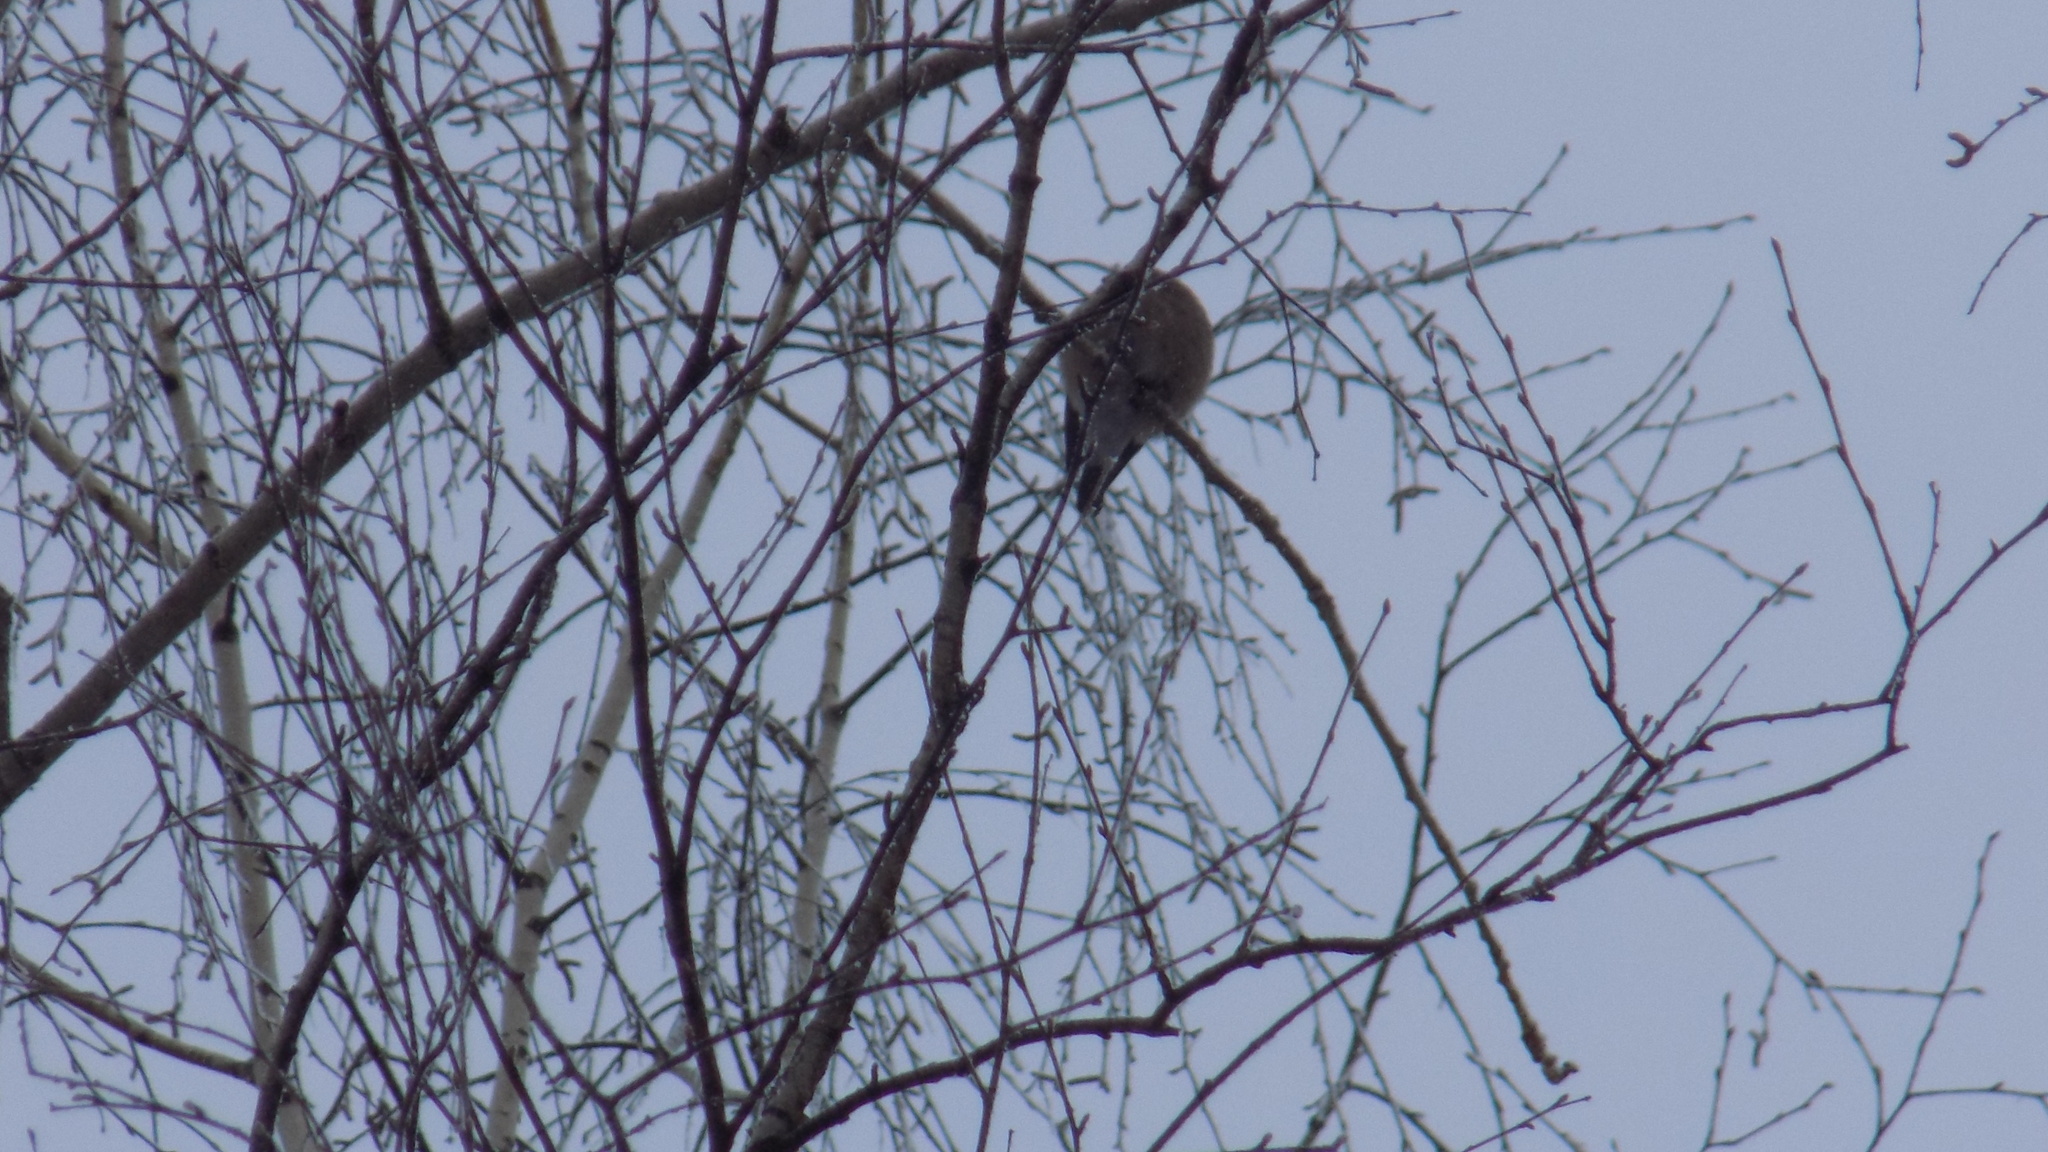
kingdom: Animalia
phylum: Chordata
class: Aves
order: Passeriformes
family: Fringillidae
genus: Pyrrhula
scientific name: Pyrrhula pyrrhula
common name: Eurasian bullfinch
